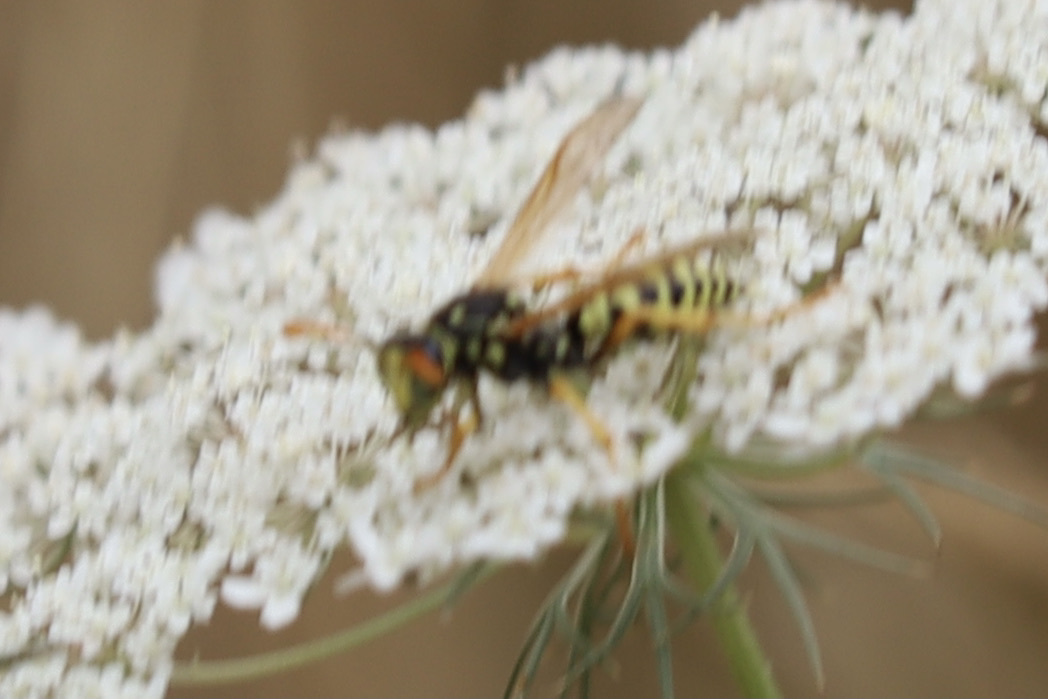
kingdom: Animalia
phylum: Arthropoda
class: Insecta
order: Hymenoptera
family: Eumenidae
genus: Polistes
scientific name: Polistes dominula
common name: Paper wasp
